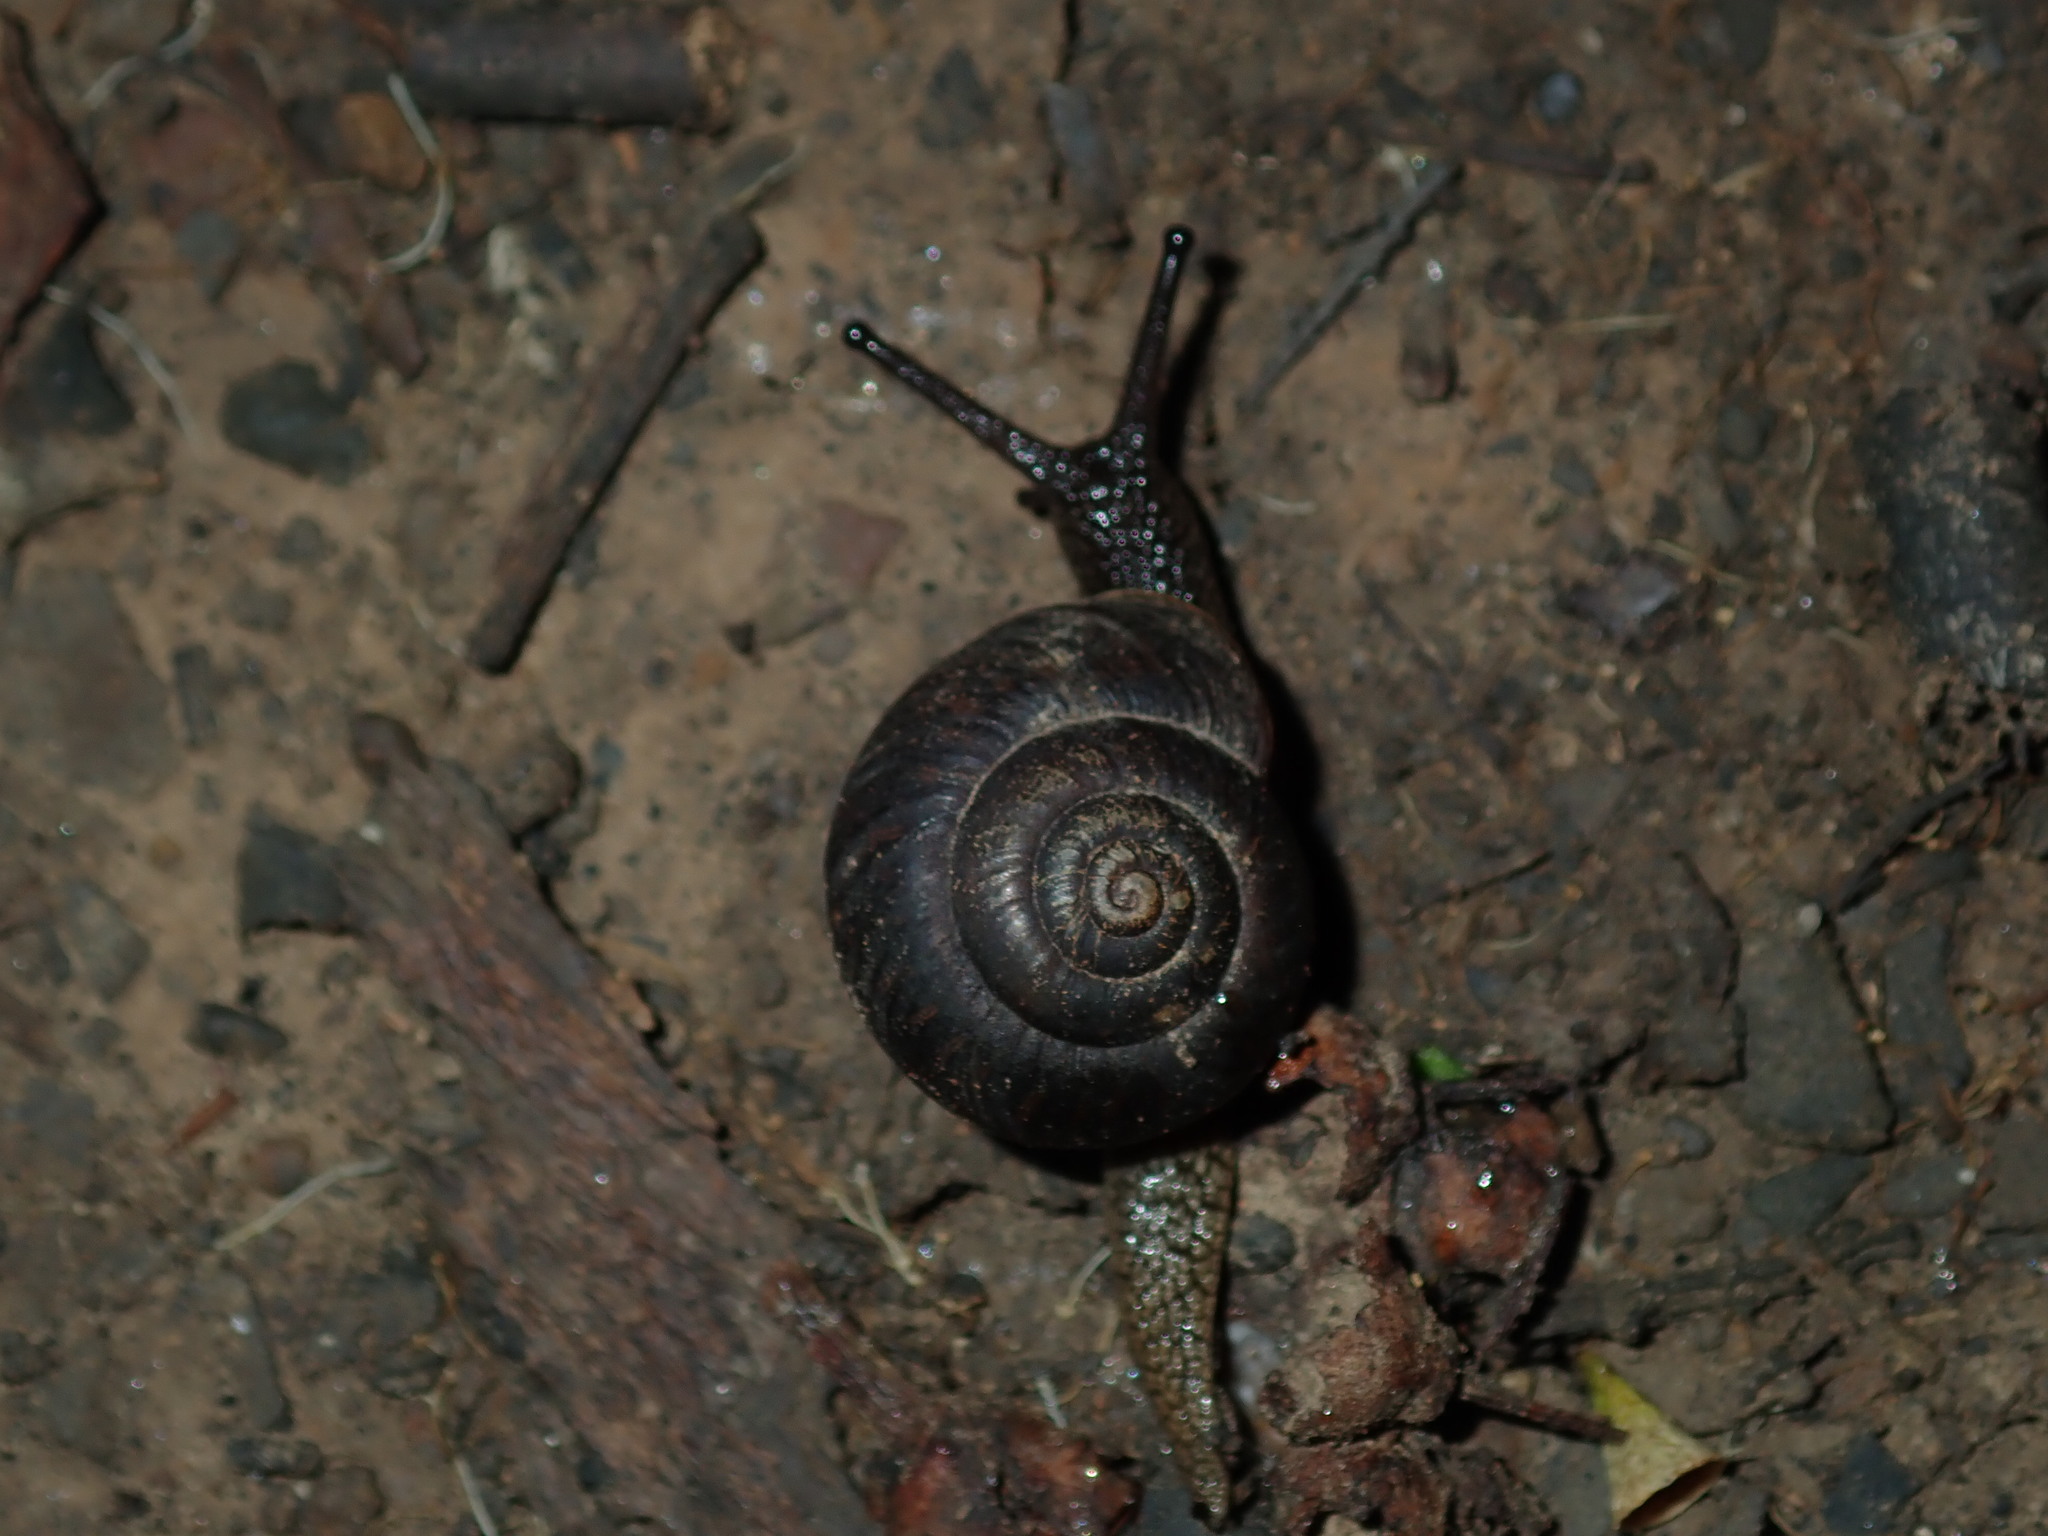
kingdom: Animalia
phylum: Mollusca
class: Gastropoda
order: Stylommatophora
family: Camaenidae
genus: Sauroconcha
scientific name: Sauroconcha sheai
